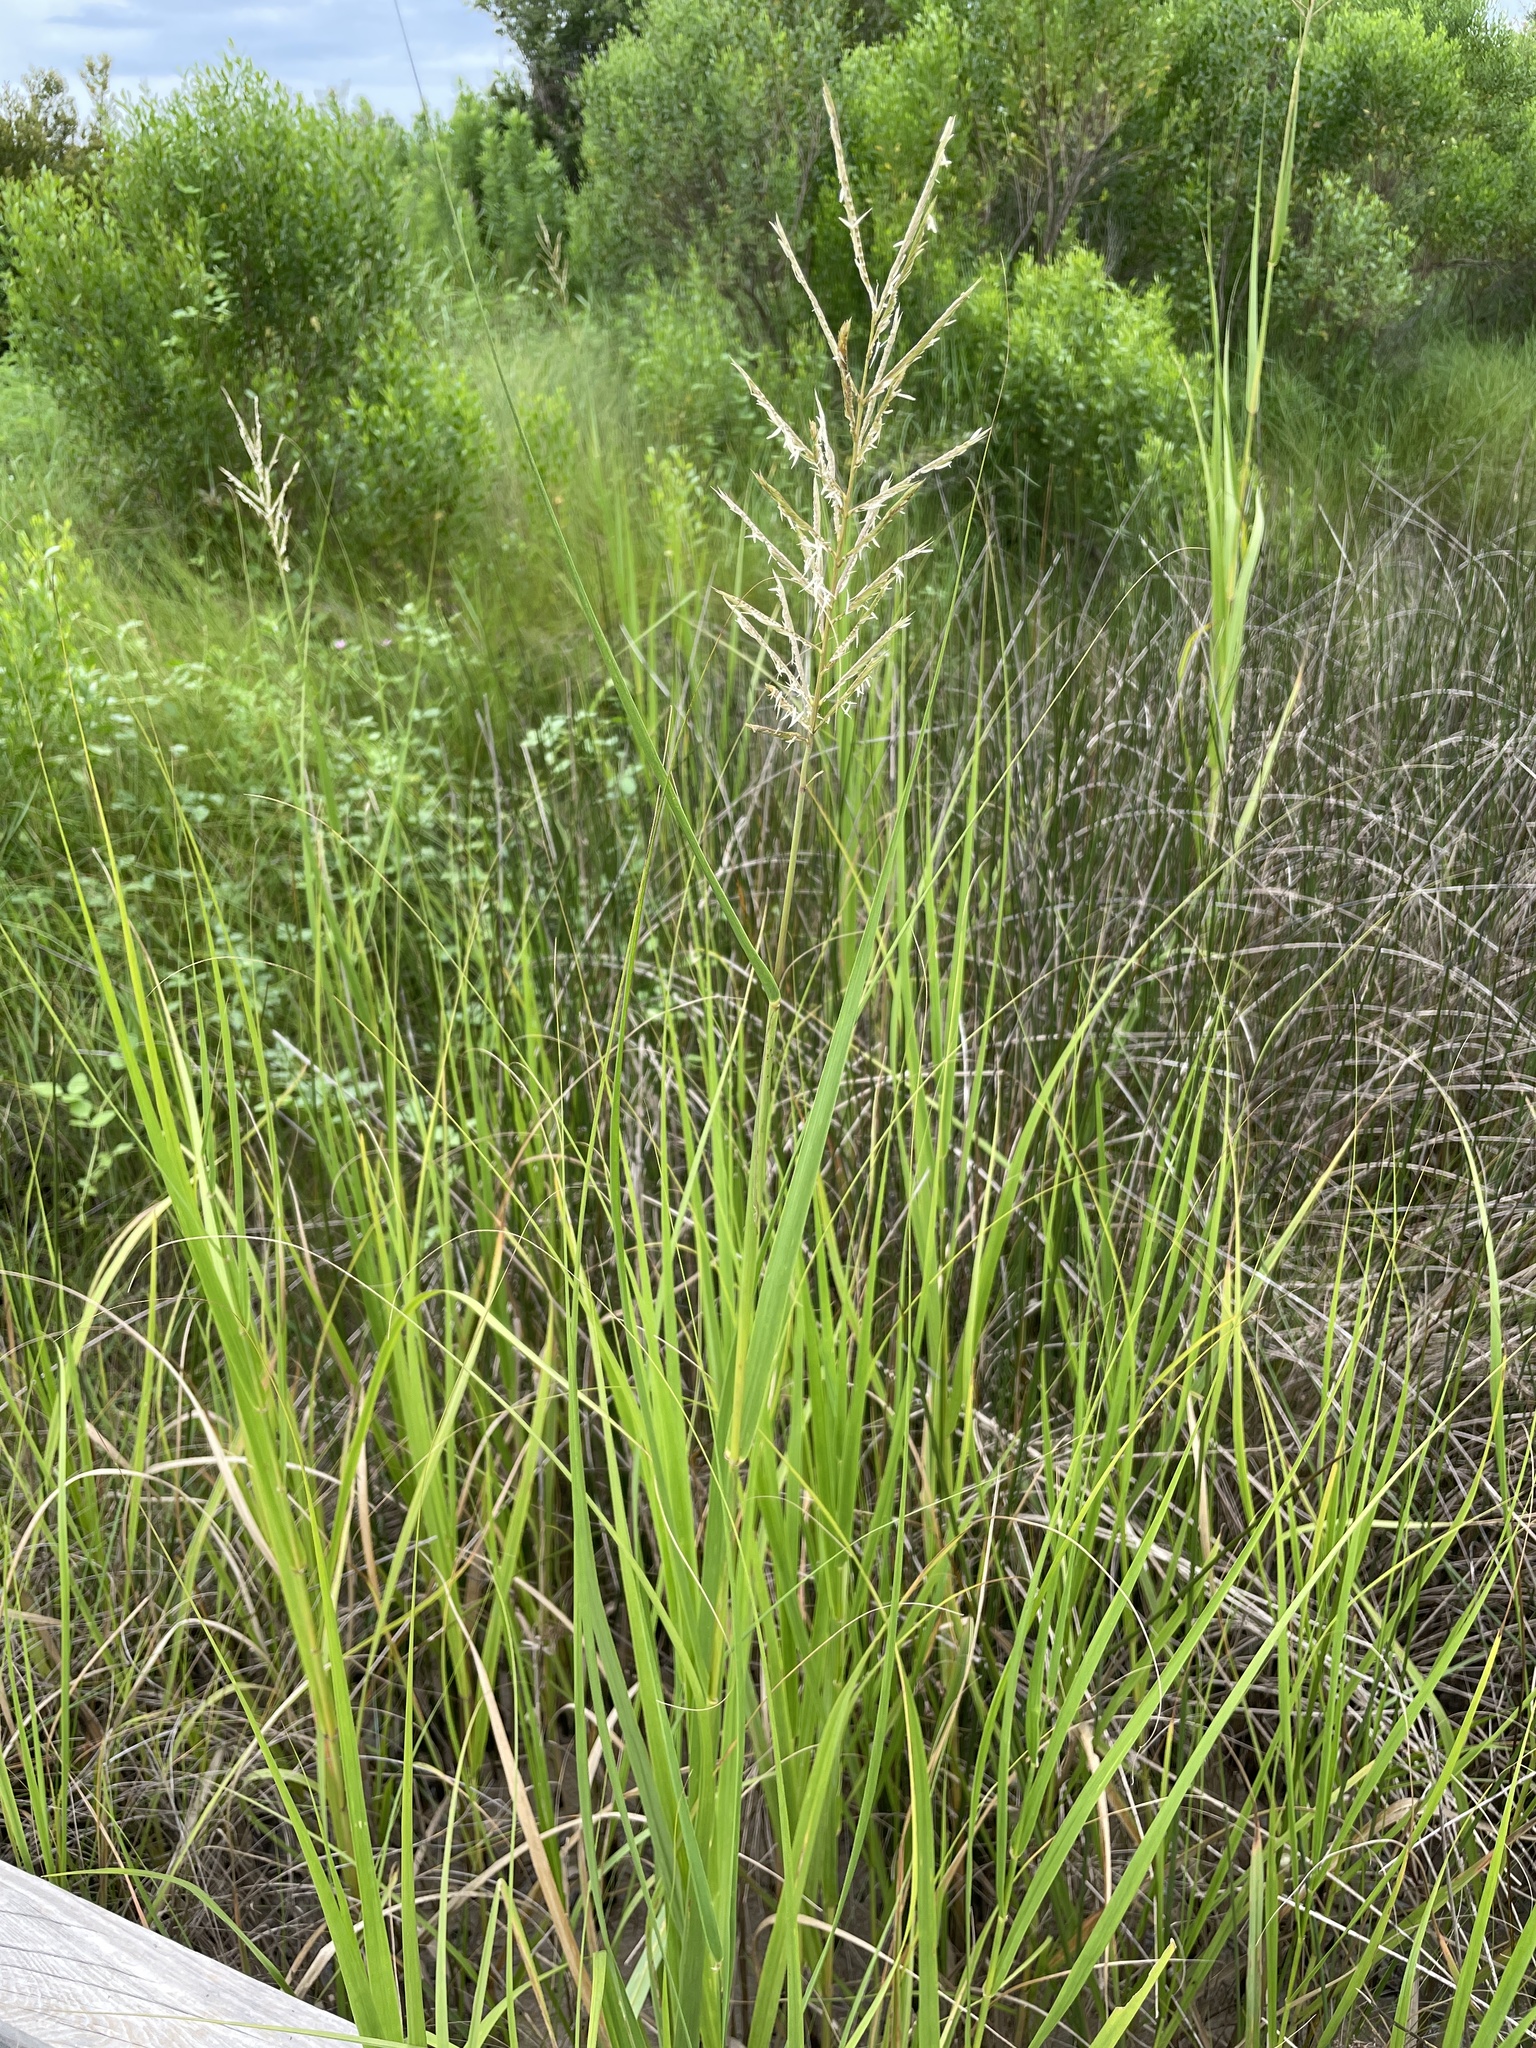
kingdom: Plantae
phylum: Tracheophyta
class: Liliopsida
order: Poales
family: Poaceae
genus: Sporobolus
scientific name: Sporobolus alterniflorus
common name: Atlantic cordgrass
